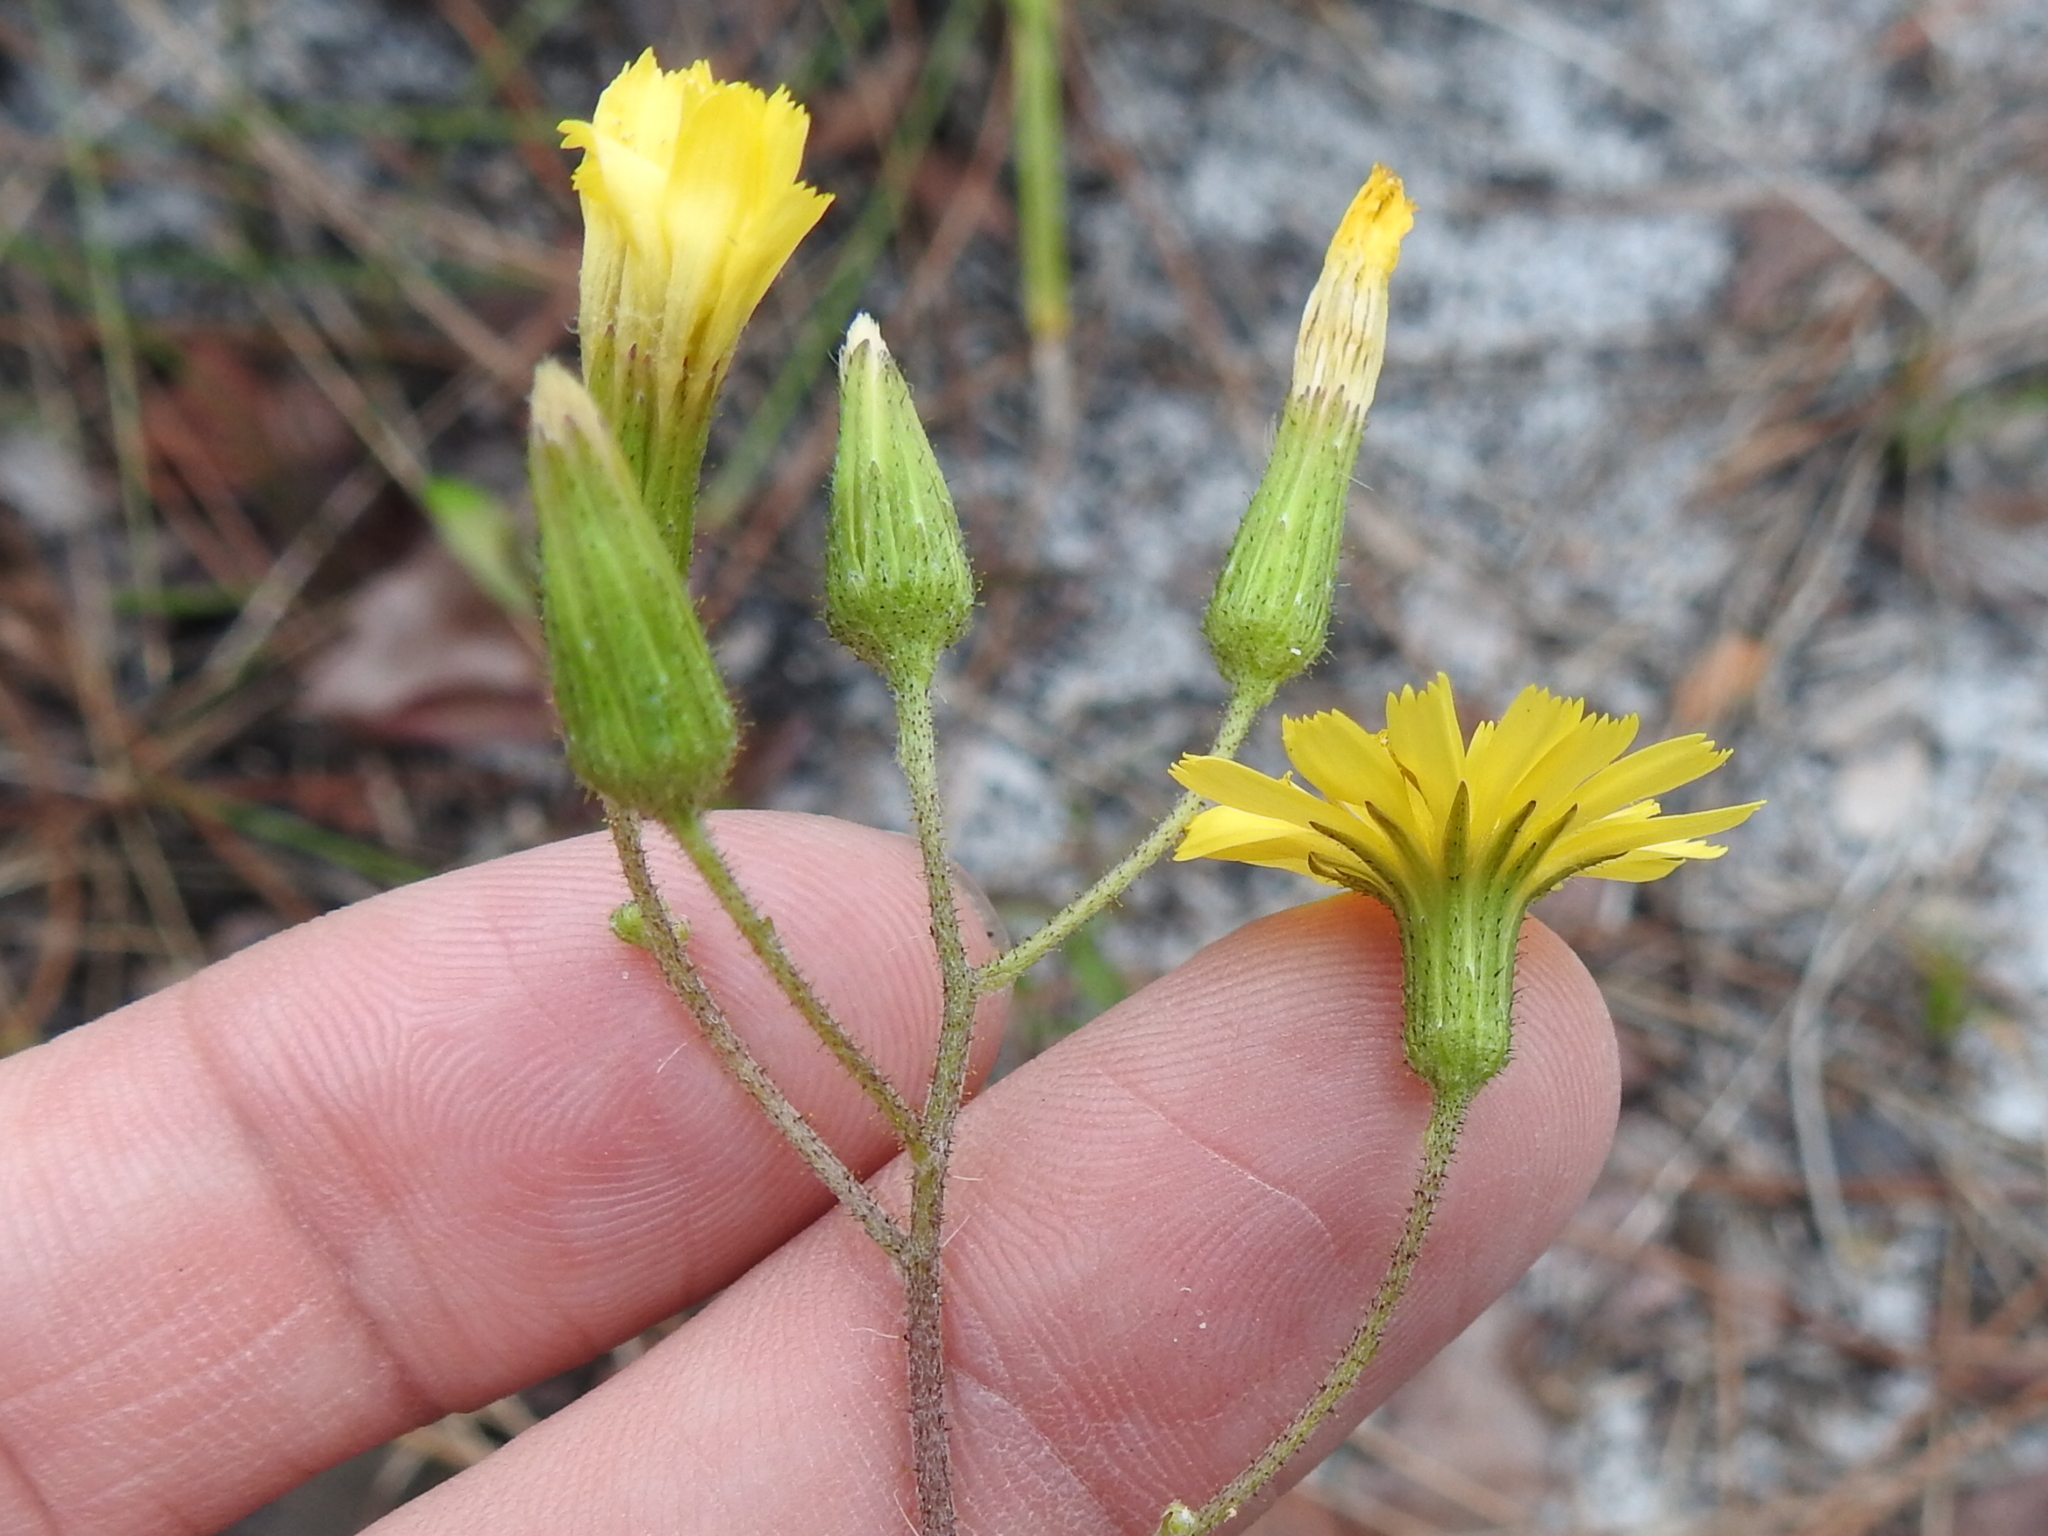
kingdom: Plantae
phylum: Tracheophyta
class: Magnoliopsida
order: Asterales
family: Asteraceae
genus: Hieracium
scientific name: Hieracium megacephalum
